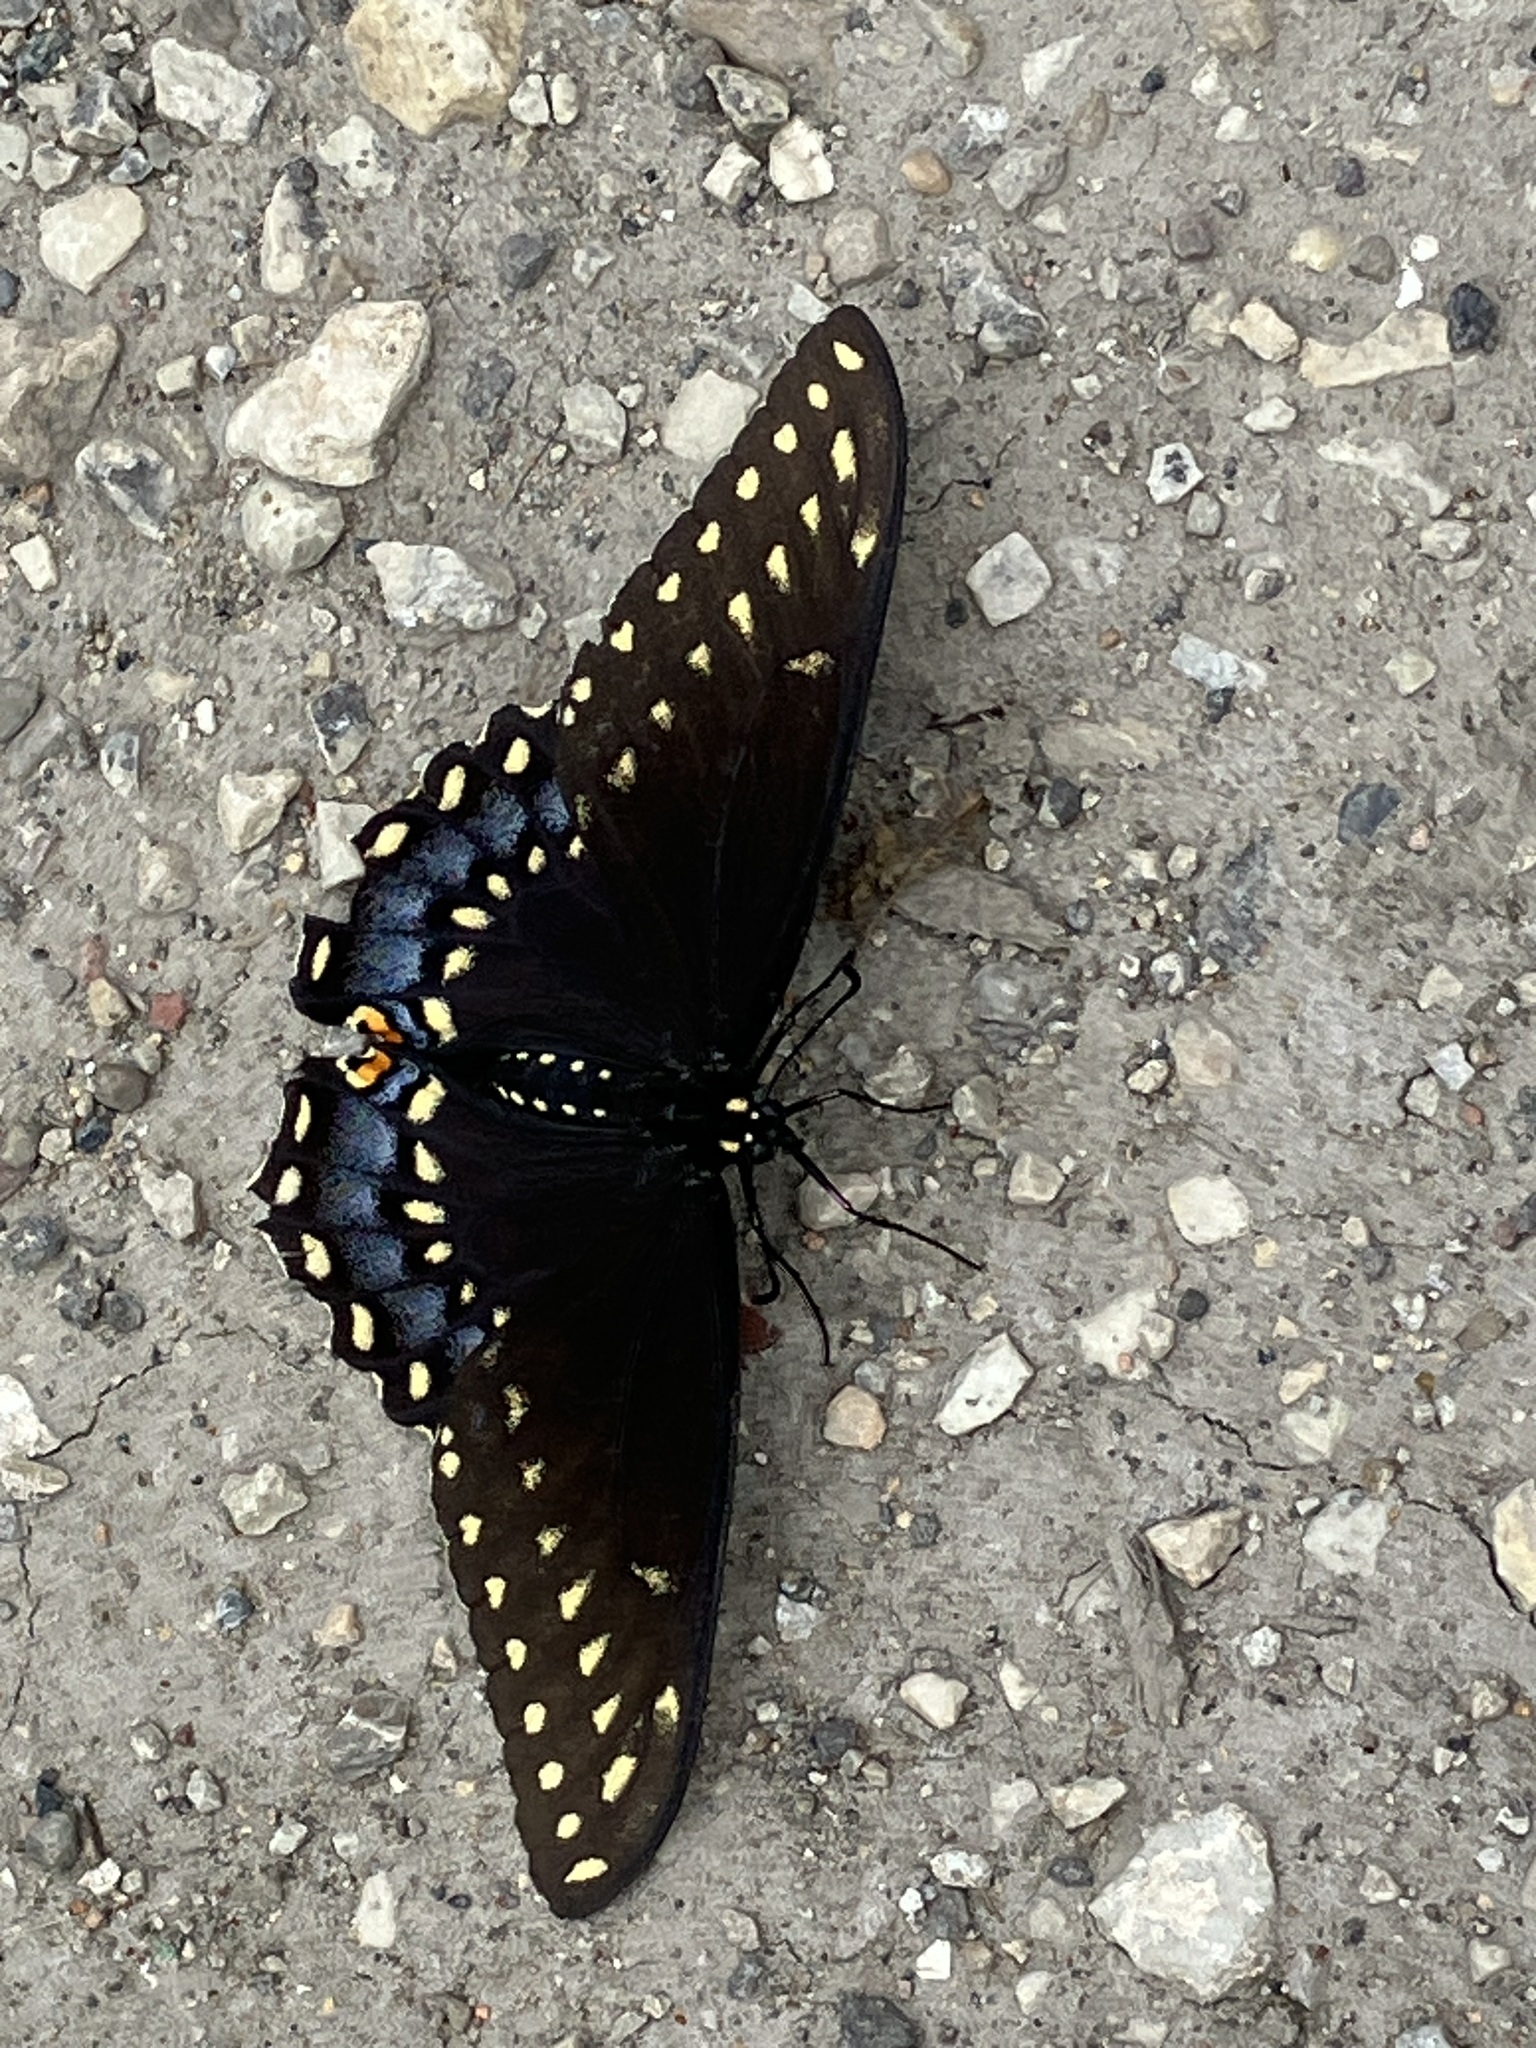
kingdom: Animalia
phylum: Arthropoda
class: Insecta
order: Lepidoptera
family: Papilionidae
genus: Papilio
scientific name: Papilio polyxenes
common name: Black swallowtail
